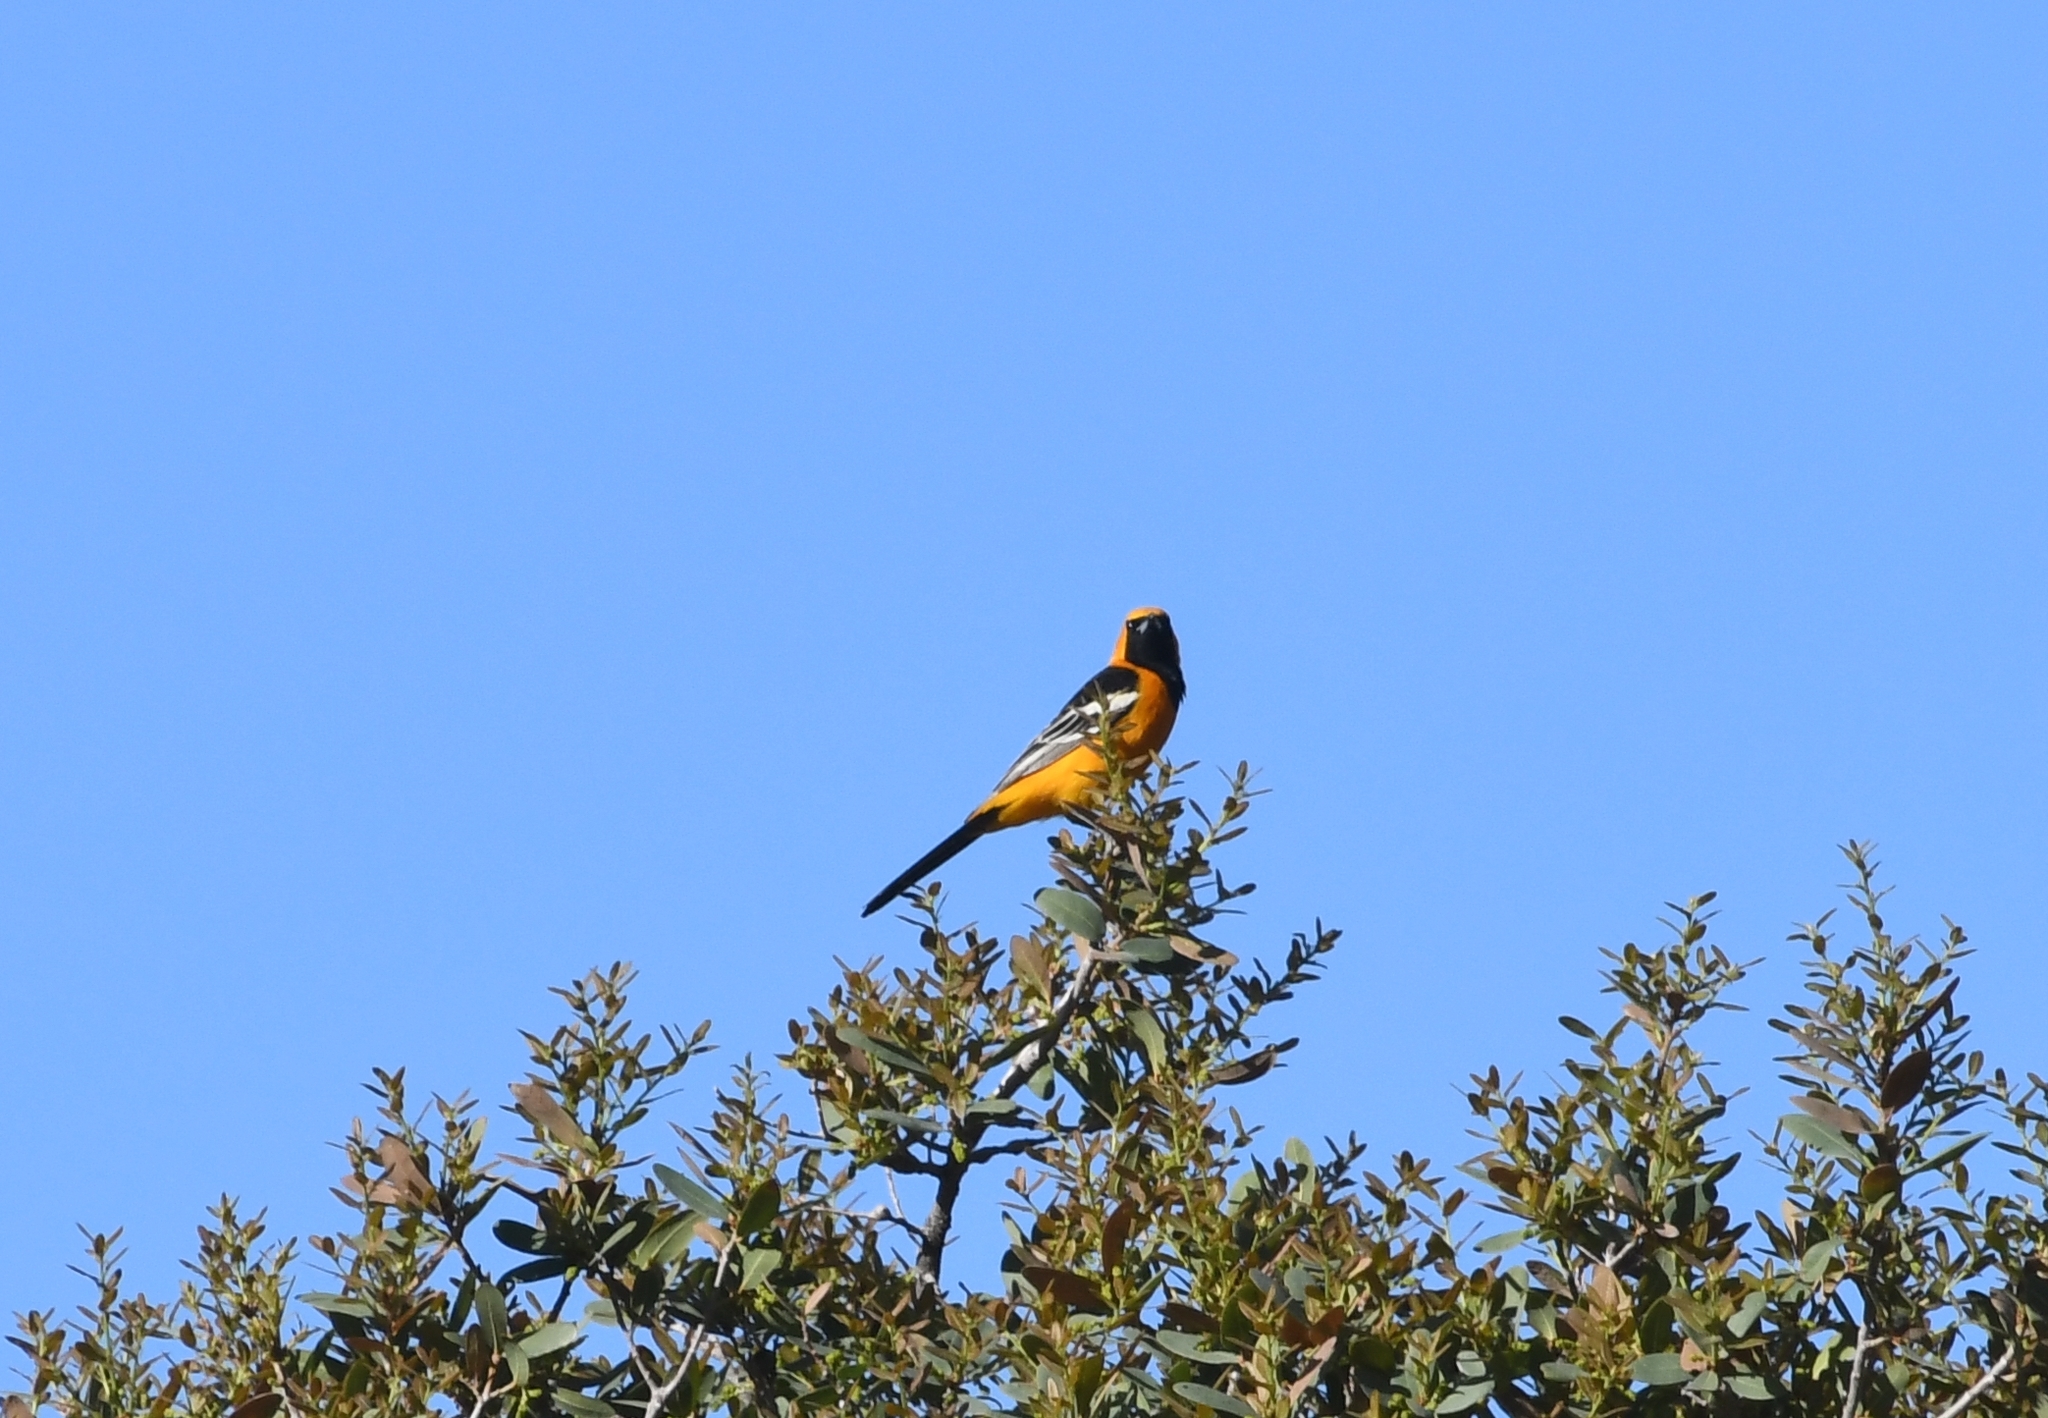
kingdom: Animalia
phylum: Chordata
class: Aves
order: Passeriformes
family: Icteridae
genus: Icterus
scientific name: Icterus cucullatus
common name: Hooded oriole
